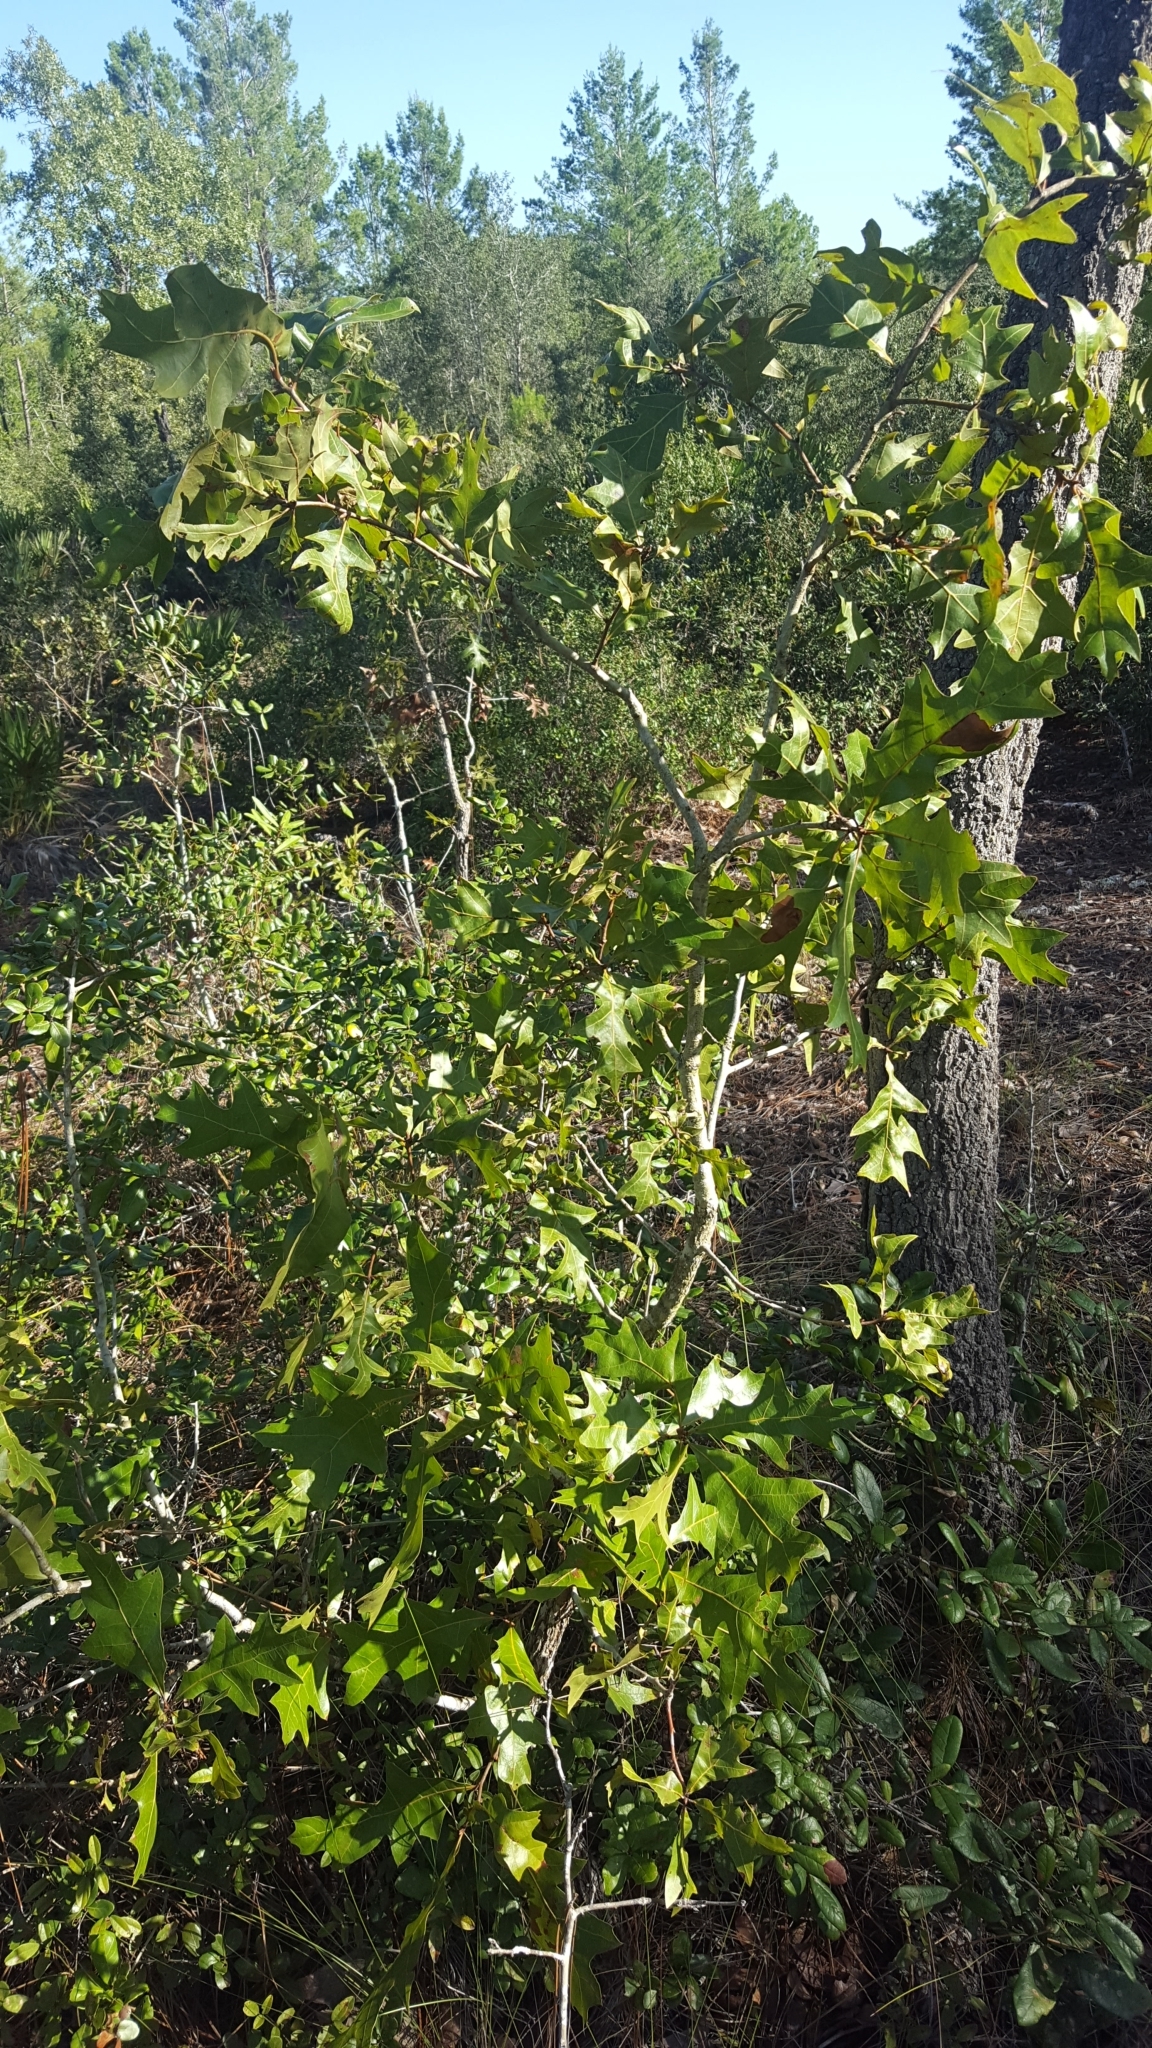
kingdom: Plantae
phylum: Tracheophyta
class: Magnoliopsida
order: Fagales
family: Fagaceae
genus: Quercus
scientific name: Quercus laevis
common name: Turkey oak
